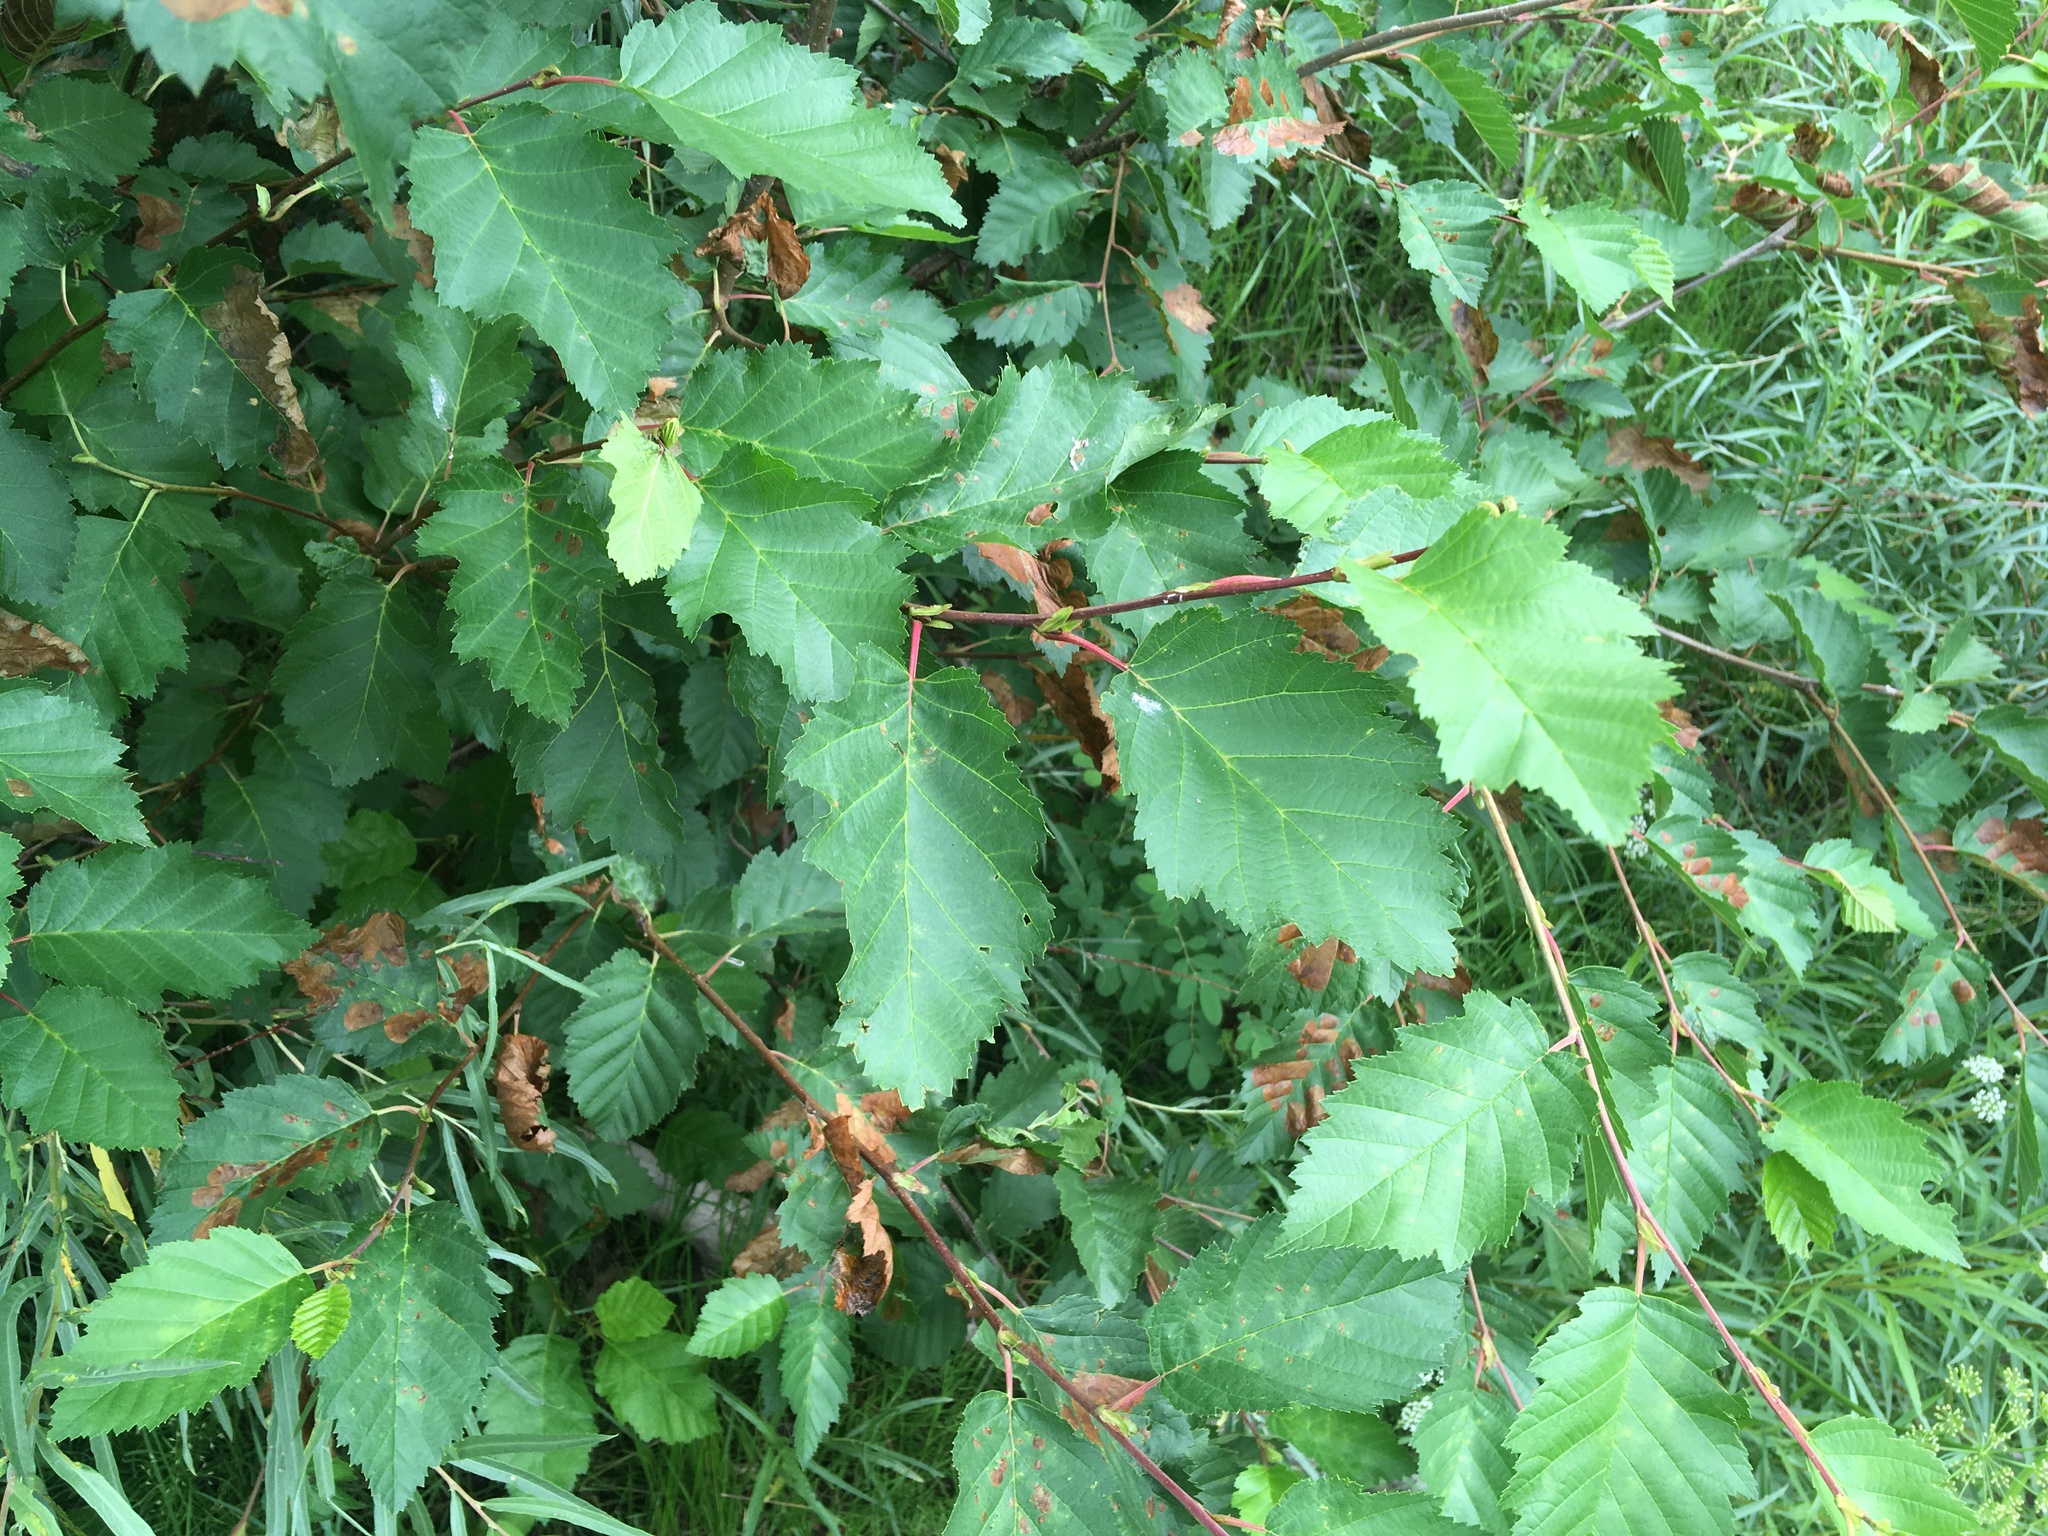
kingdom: Plantae
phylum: Tracheophyta
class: Magnoliopsida
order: Fagales
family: Betulaceae
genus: Alnus
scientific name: Alnus incana
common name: Grey alder
